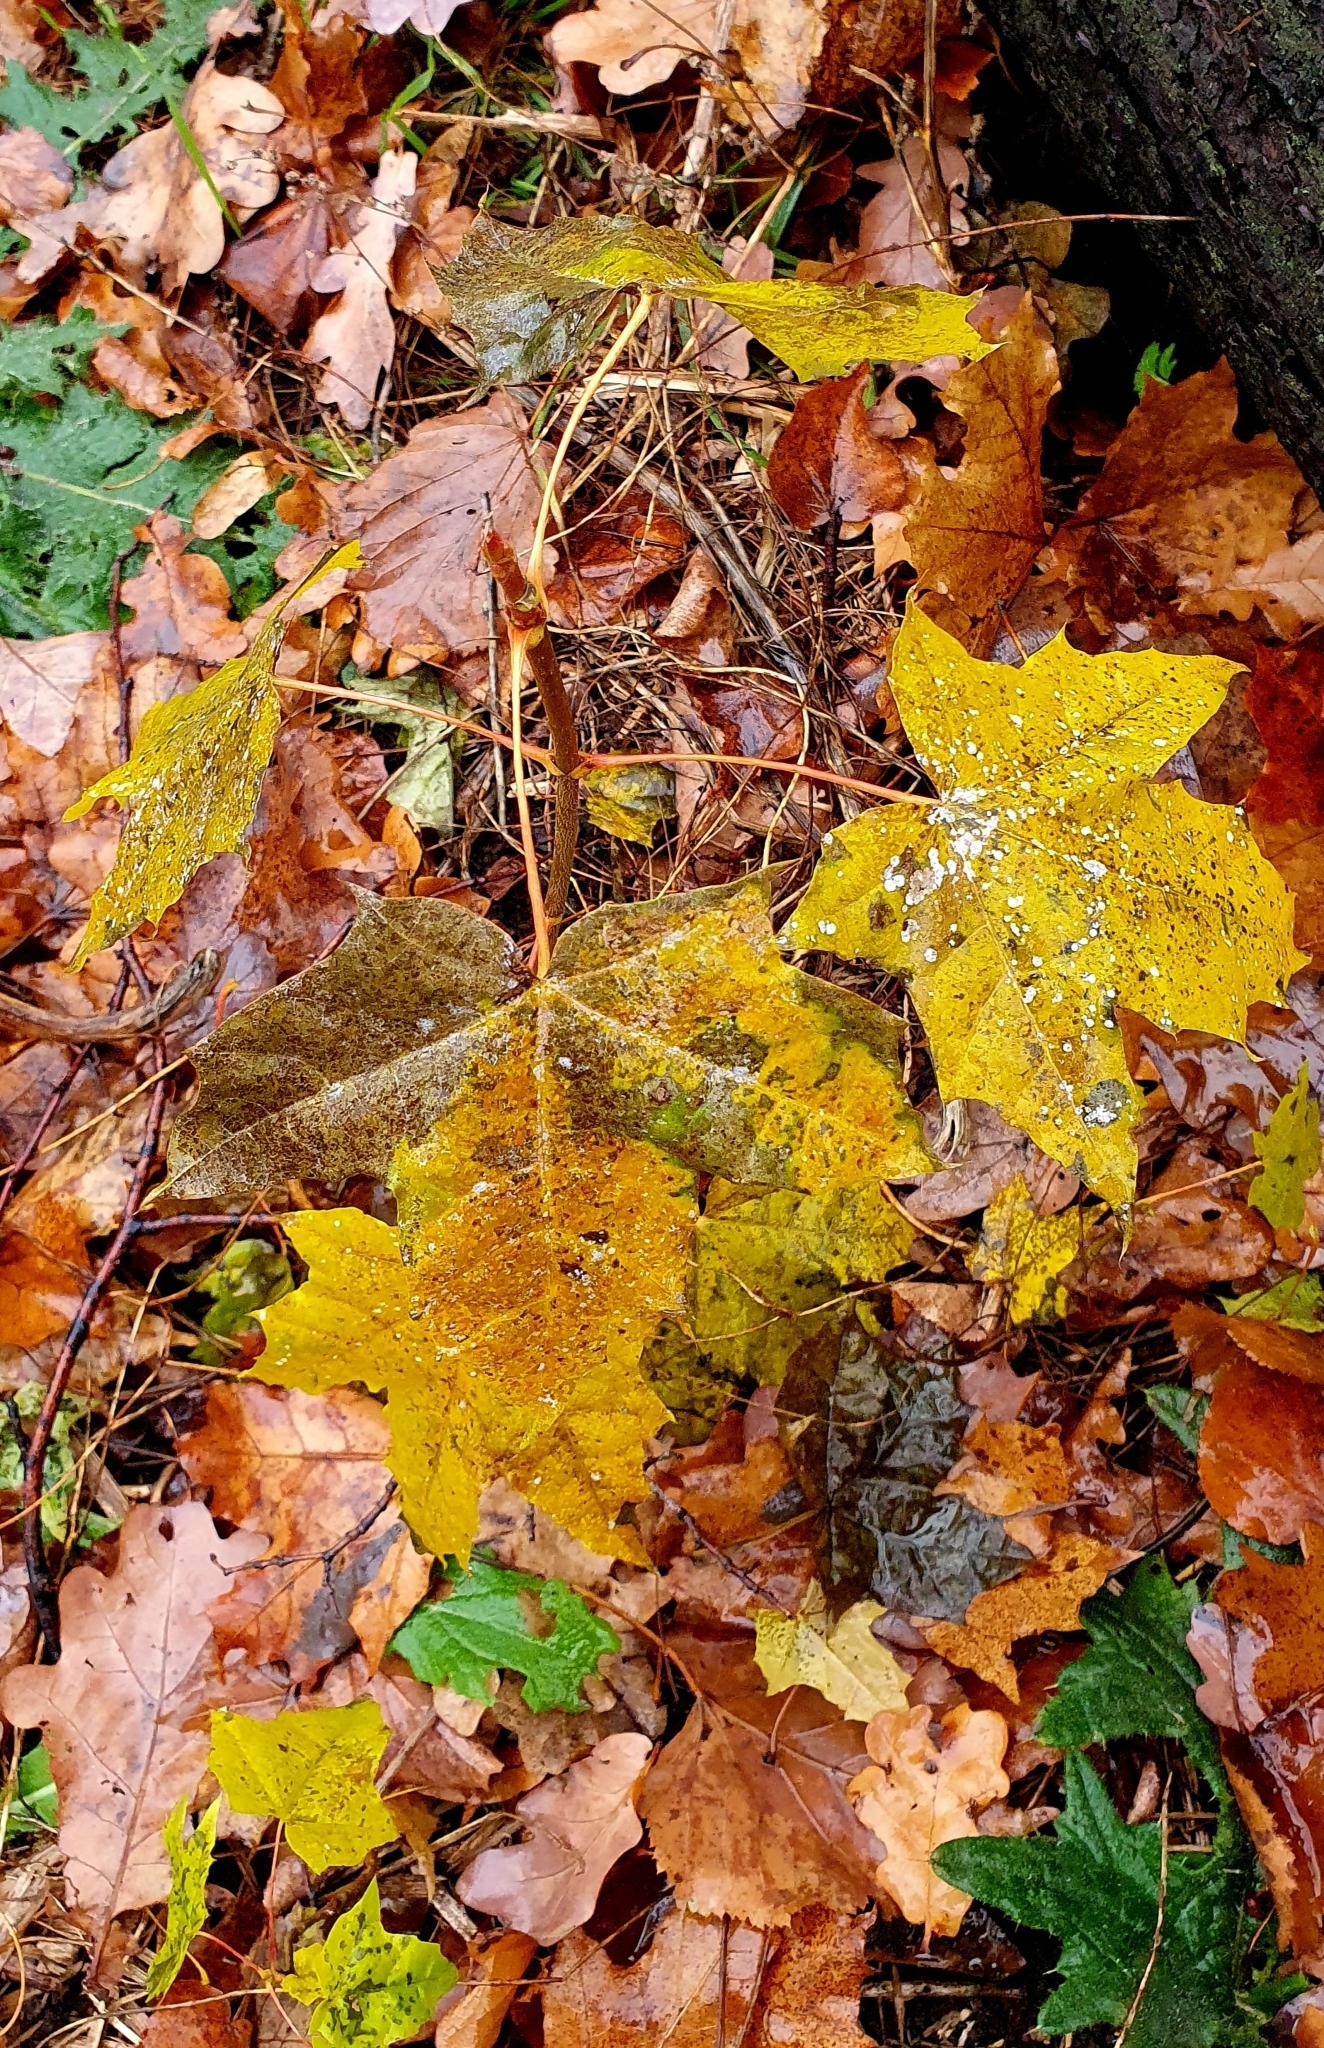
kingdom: Plantae
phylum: Tracheophyta
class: Magnoliopsida
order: Sapindales
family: Sapindaceae
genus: Acer
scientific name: Acer platanoides
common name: Norway maple
